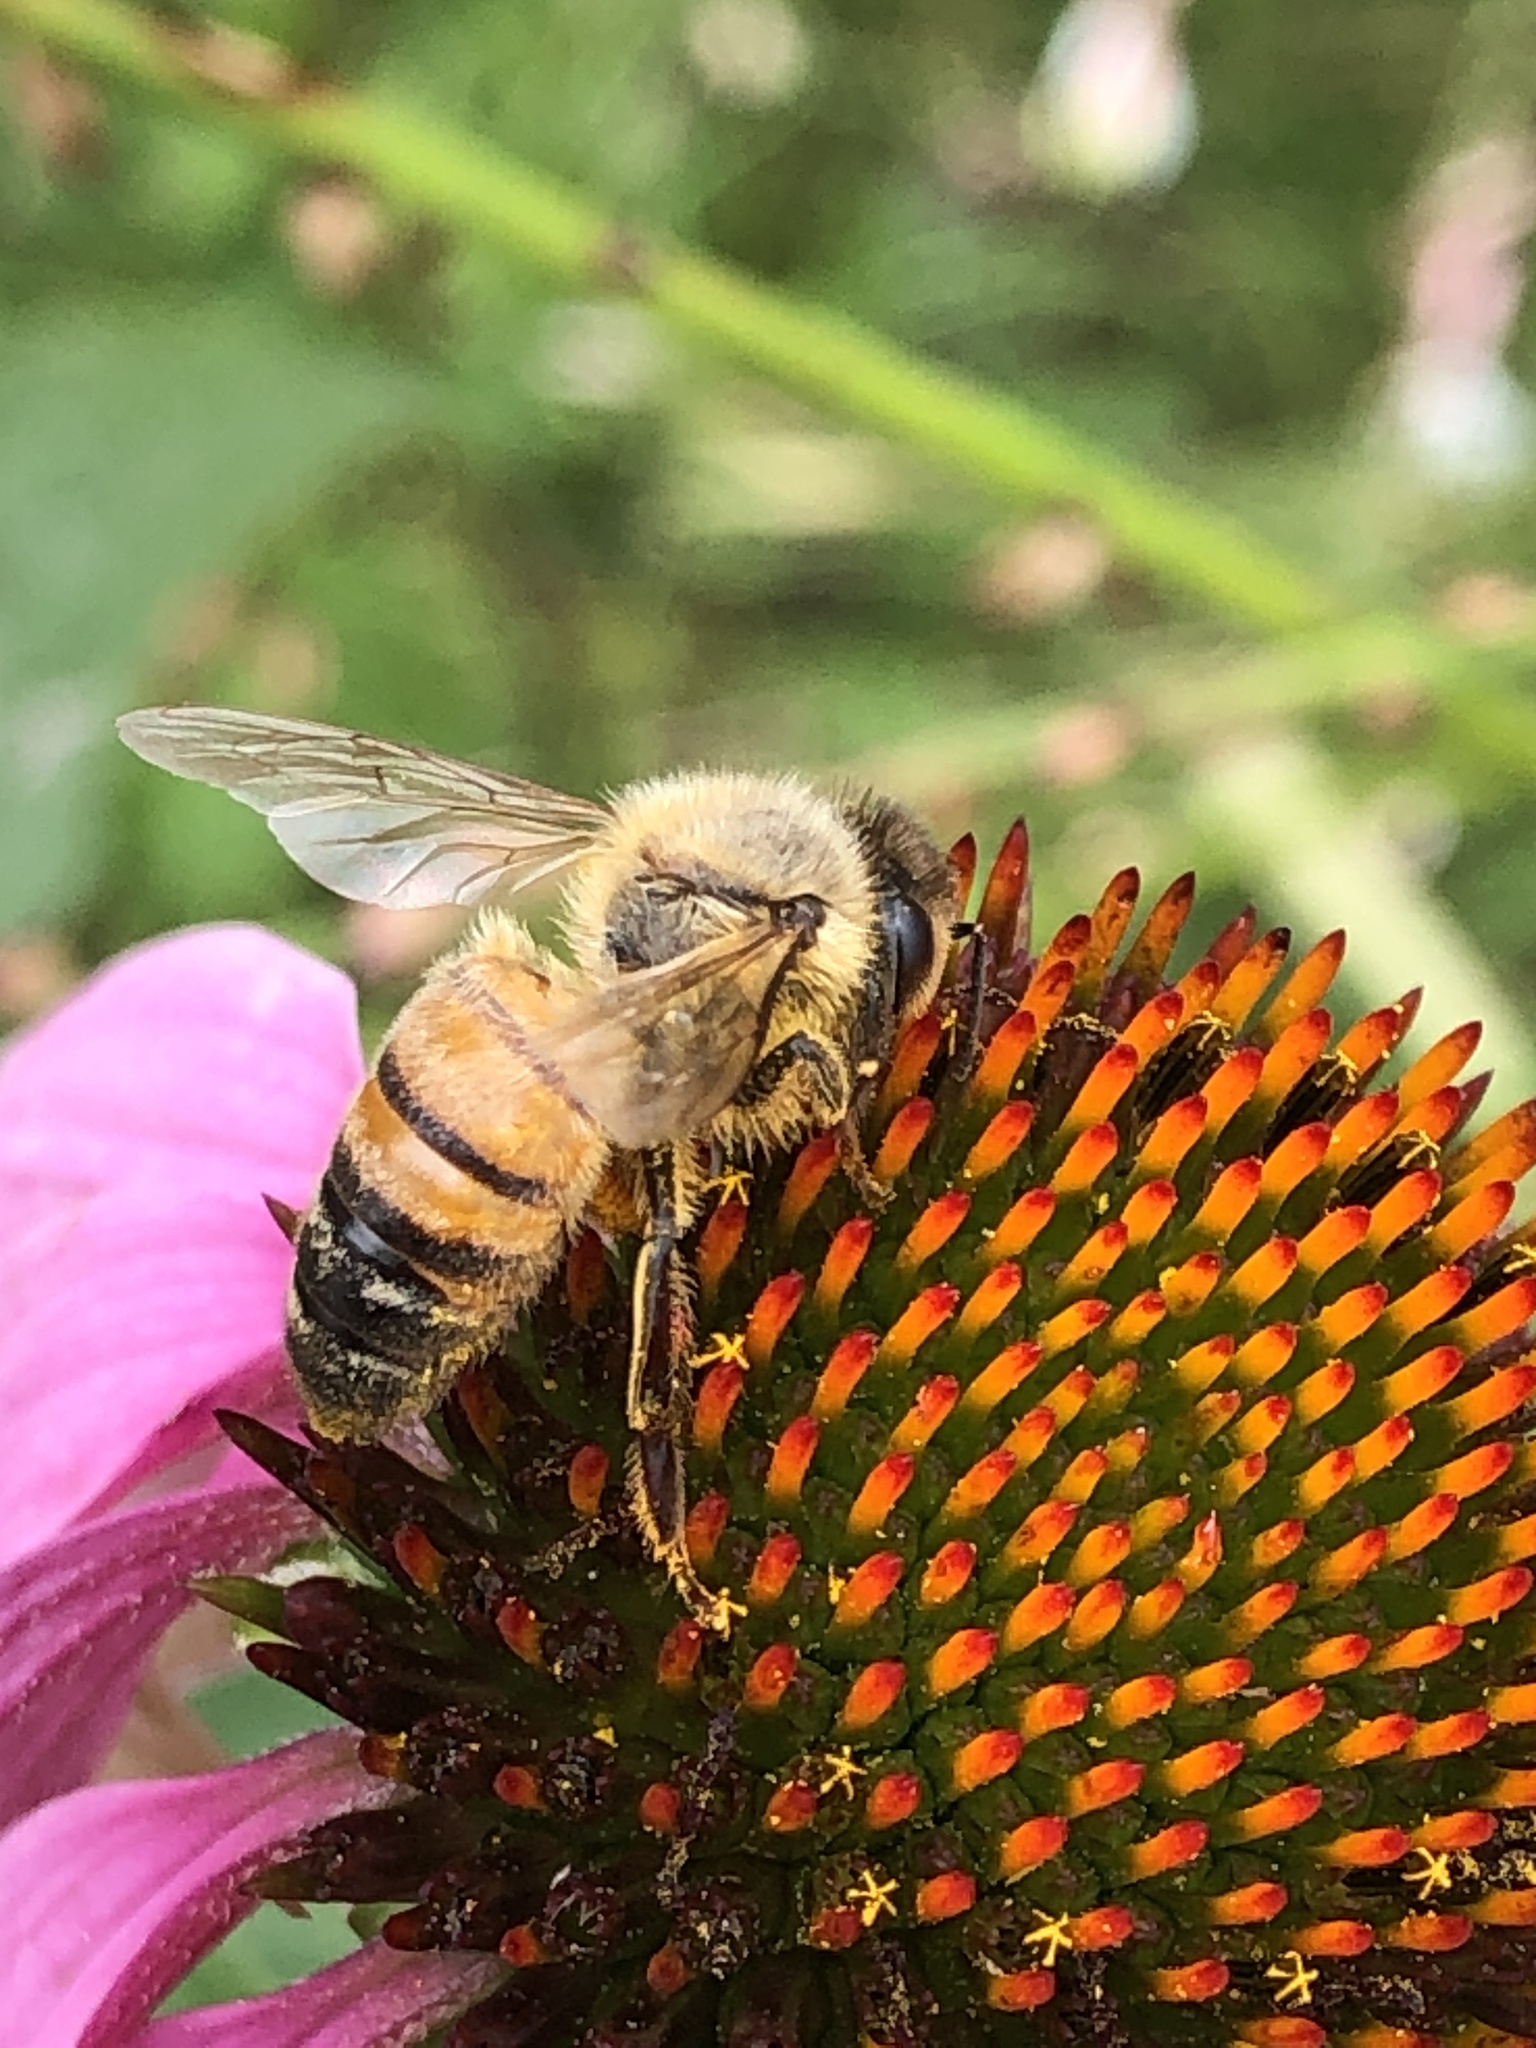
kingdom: Animalia
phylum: Arthropoda
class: Insecta
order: Hymenoptera
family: Apidae
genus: Apis
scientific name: Apis mellifera
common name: Honey bee
